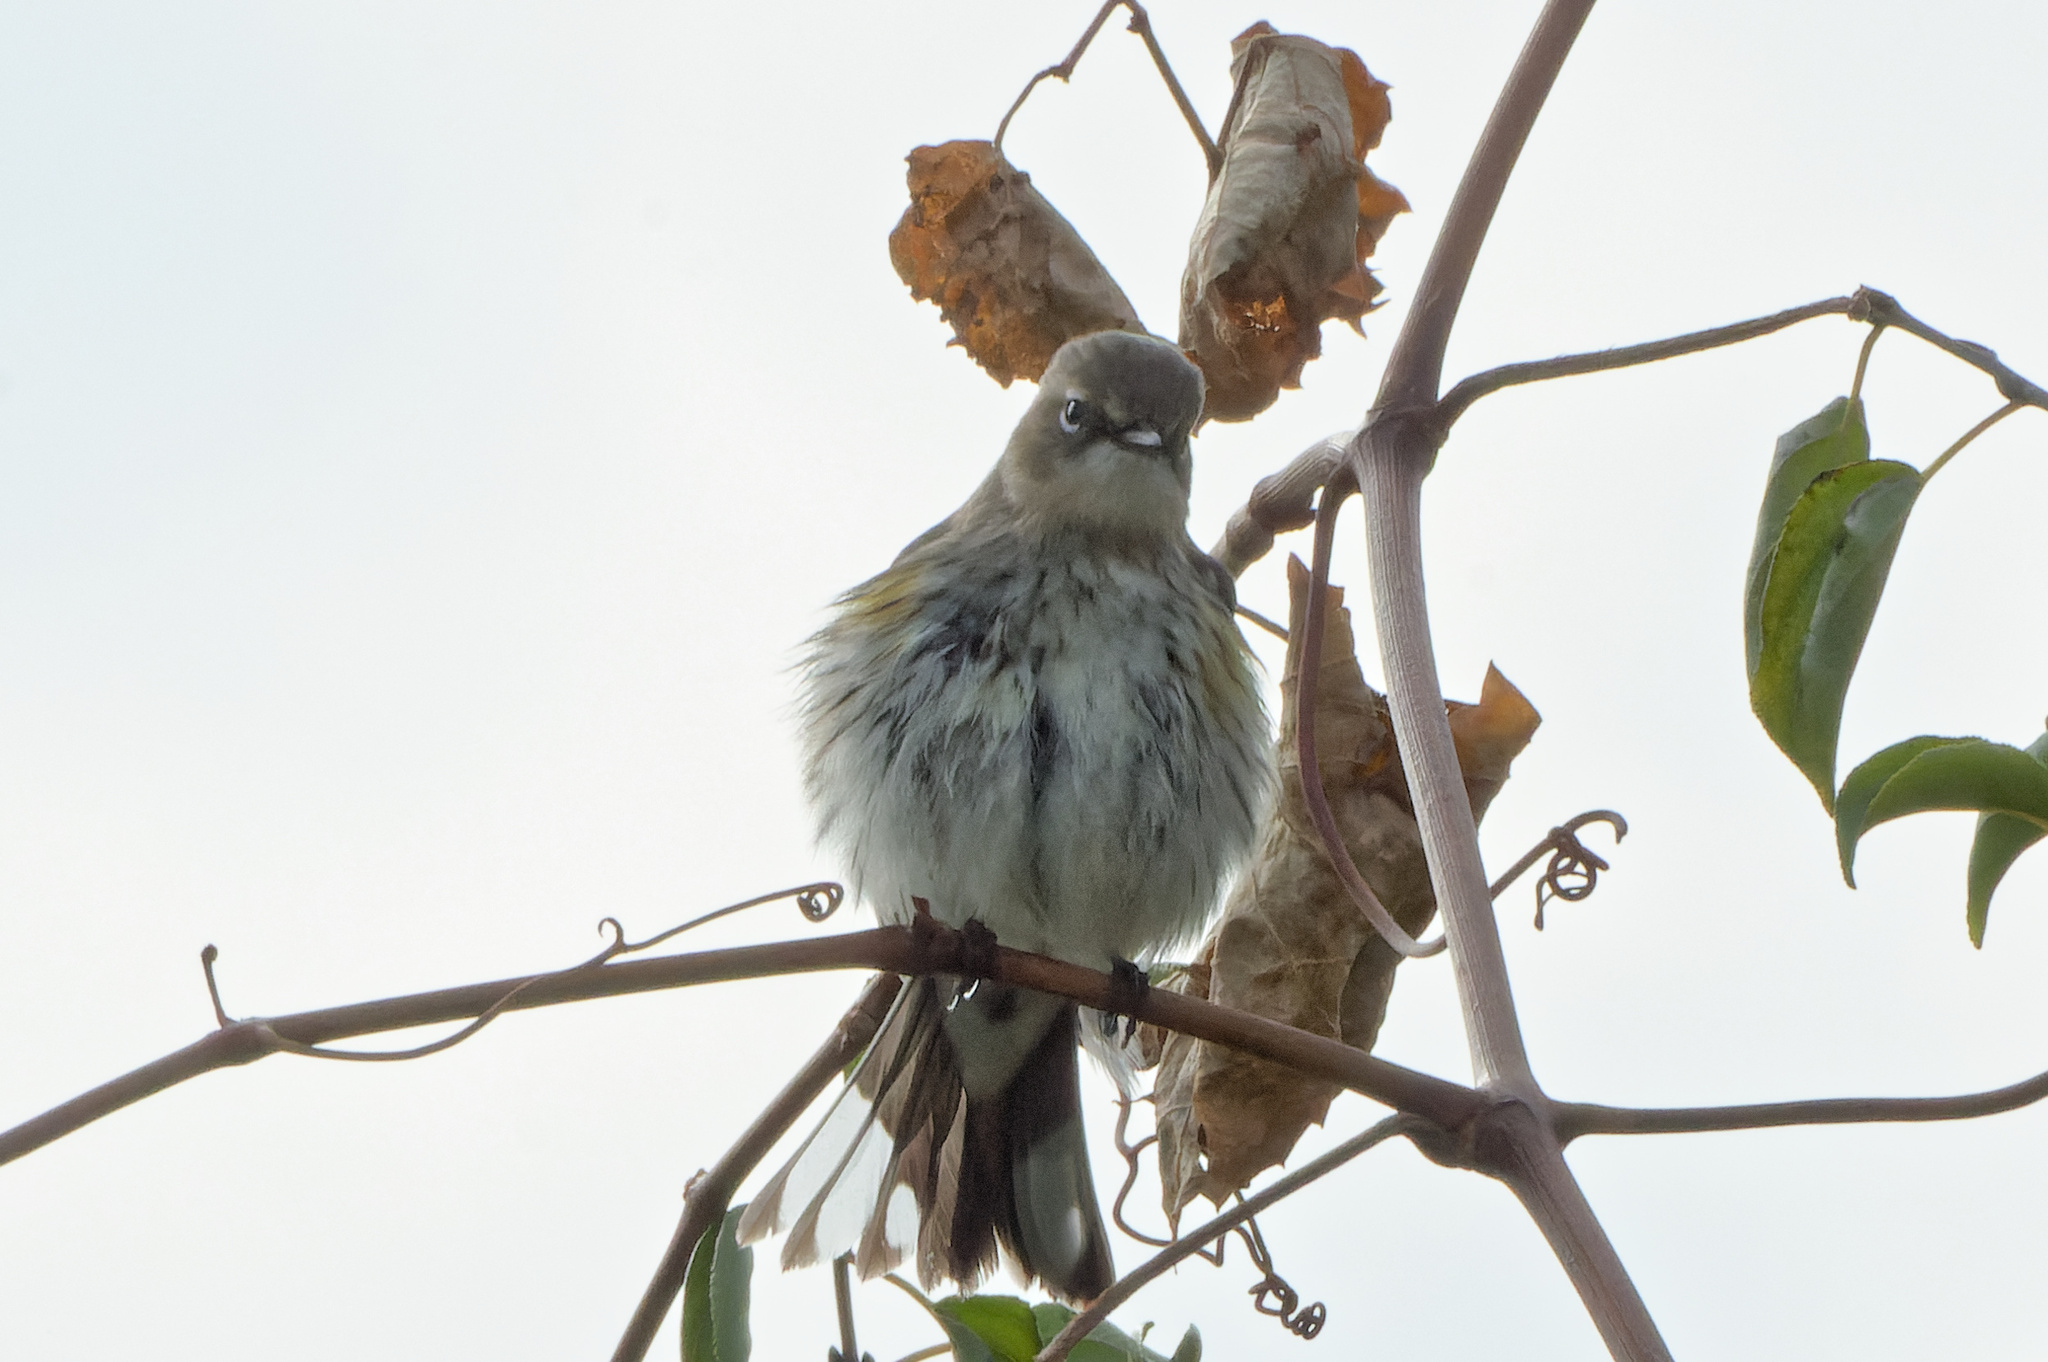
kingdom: Animalia
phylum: Chordata
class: Aves
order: Passeriformes
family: Parulidae
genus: Setophaga
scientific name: Setophaga coronata
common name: Myrtle warbler
